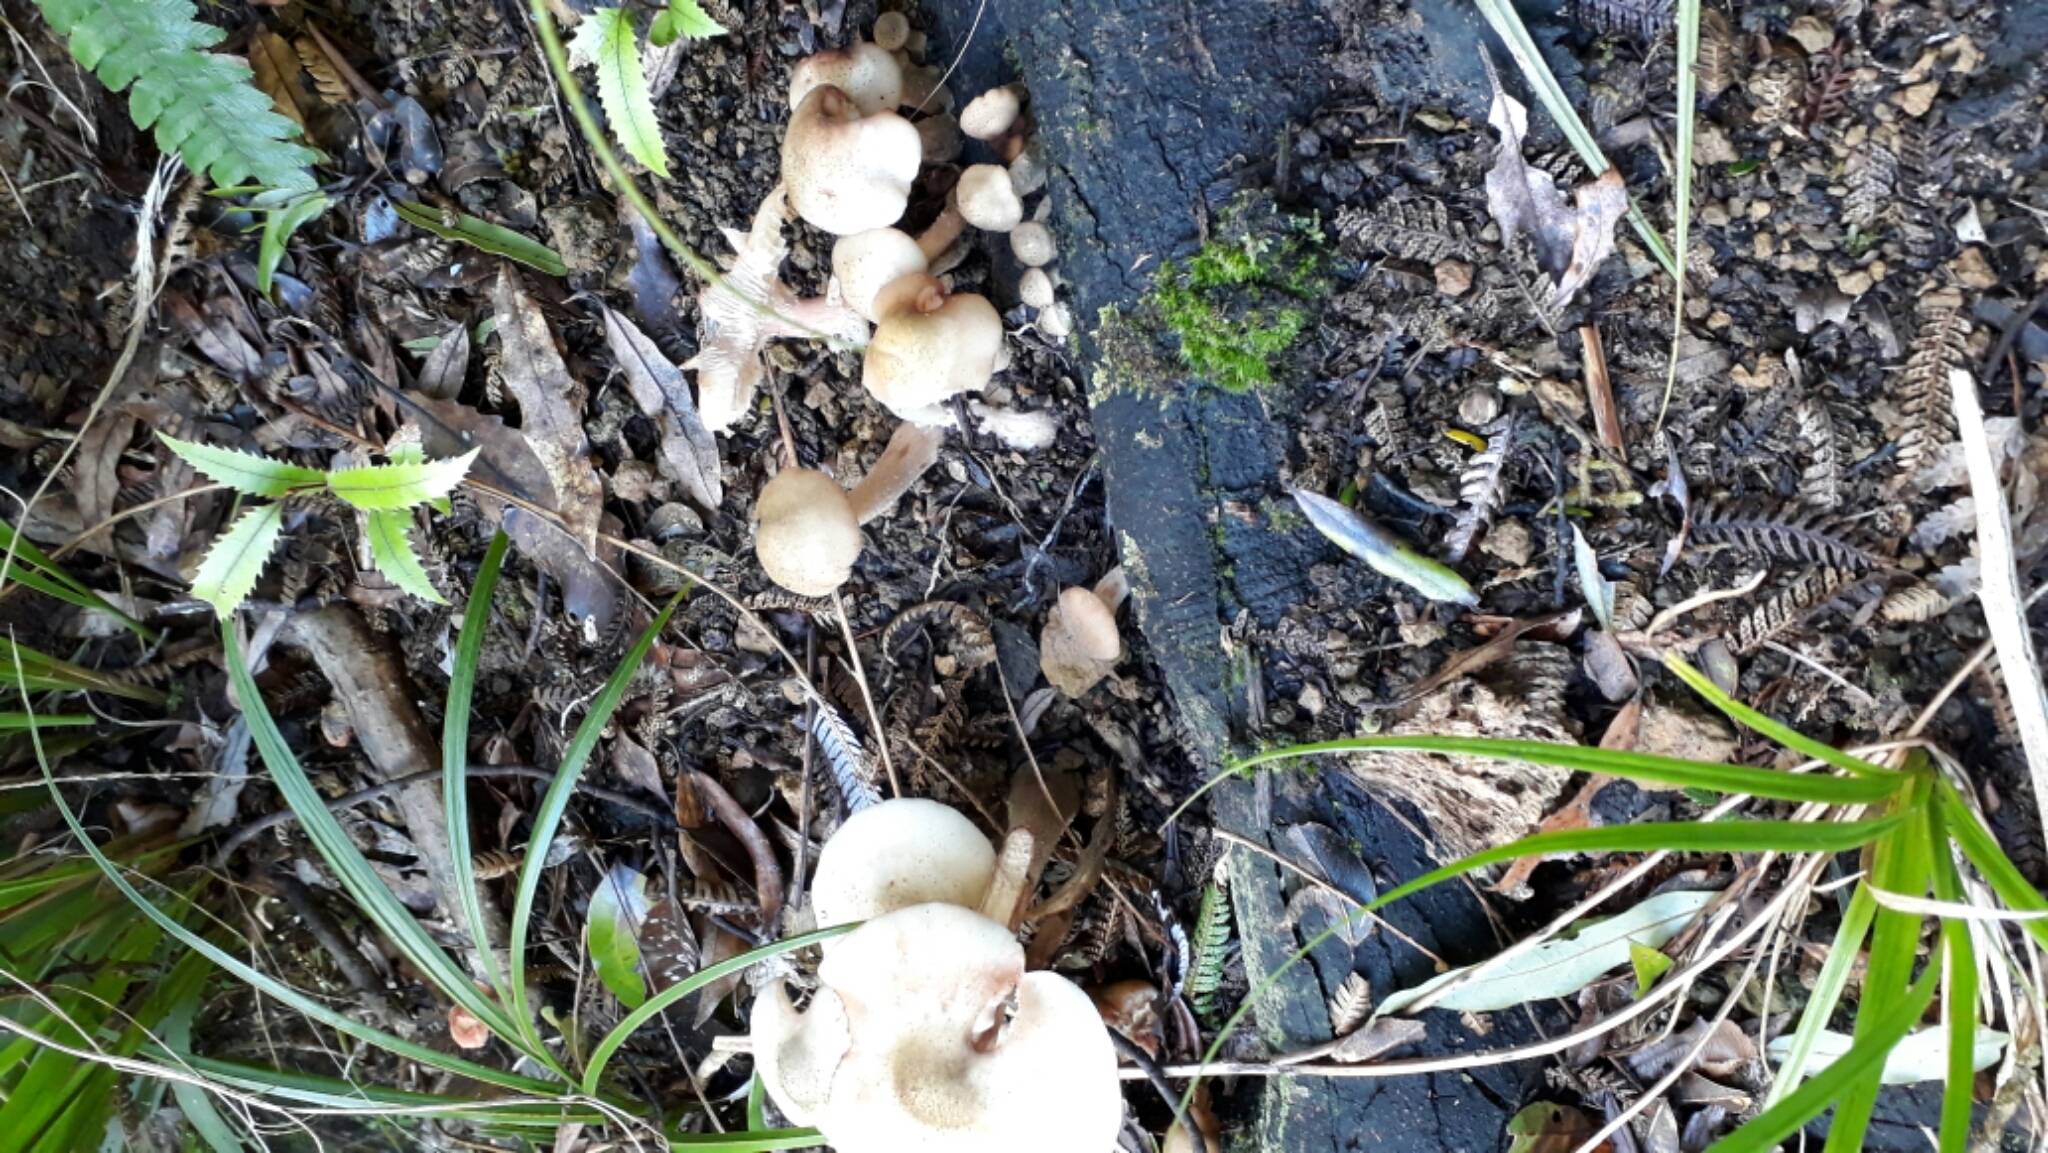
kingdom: Fungi
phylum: Basidiomycota
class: Agaricomycetes
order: Agaricales
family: Physalacriaceae
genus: Armillaria
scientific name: Armillaria novae-zelandiae
